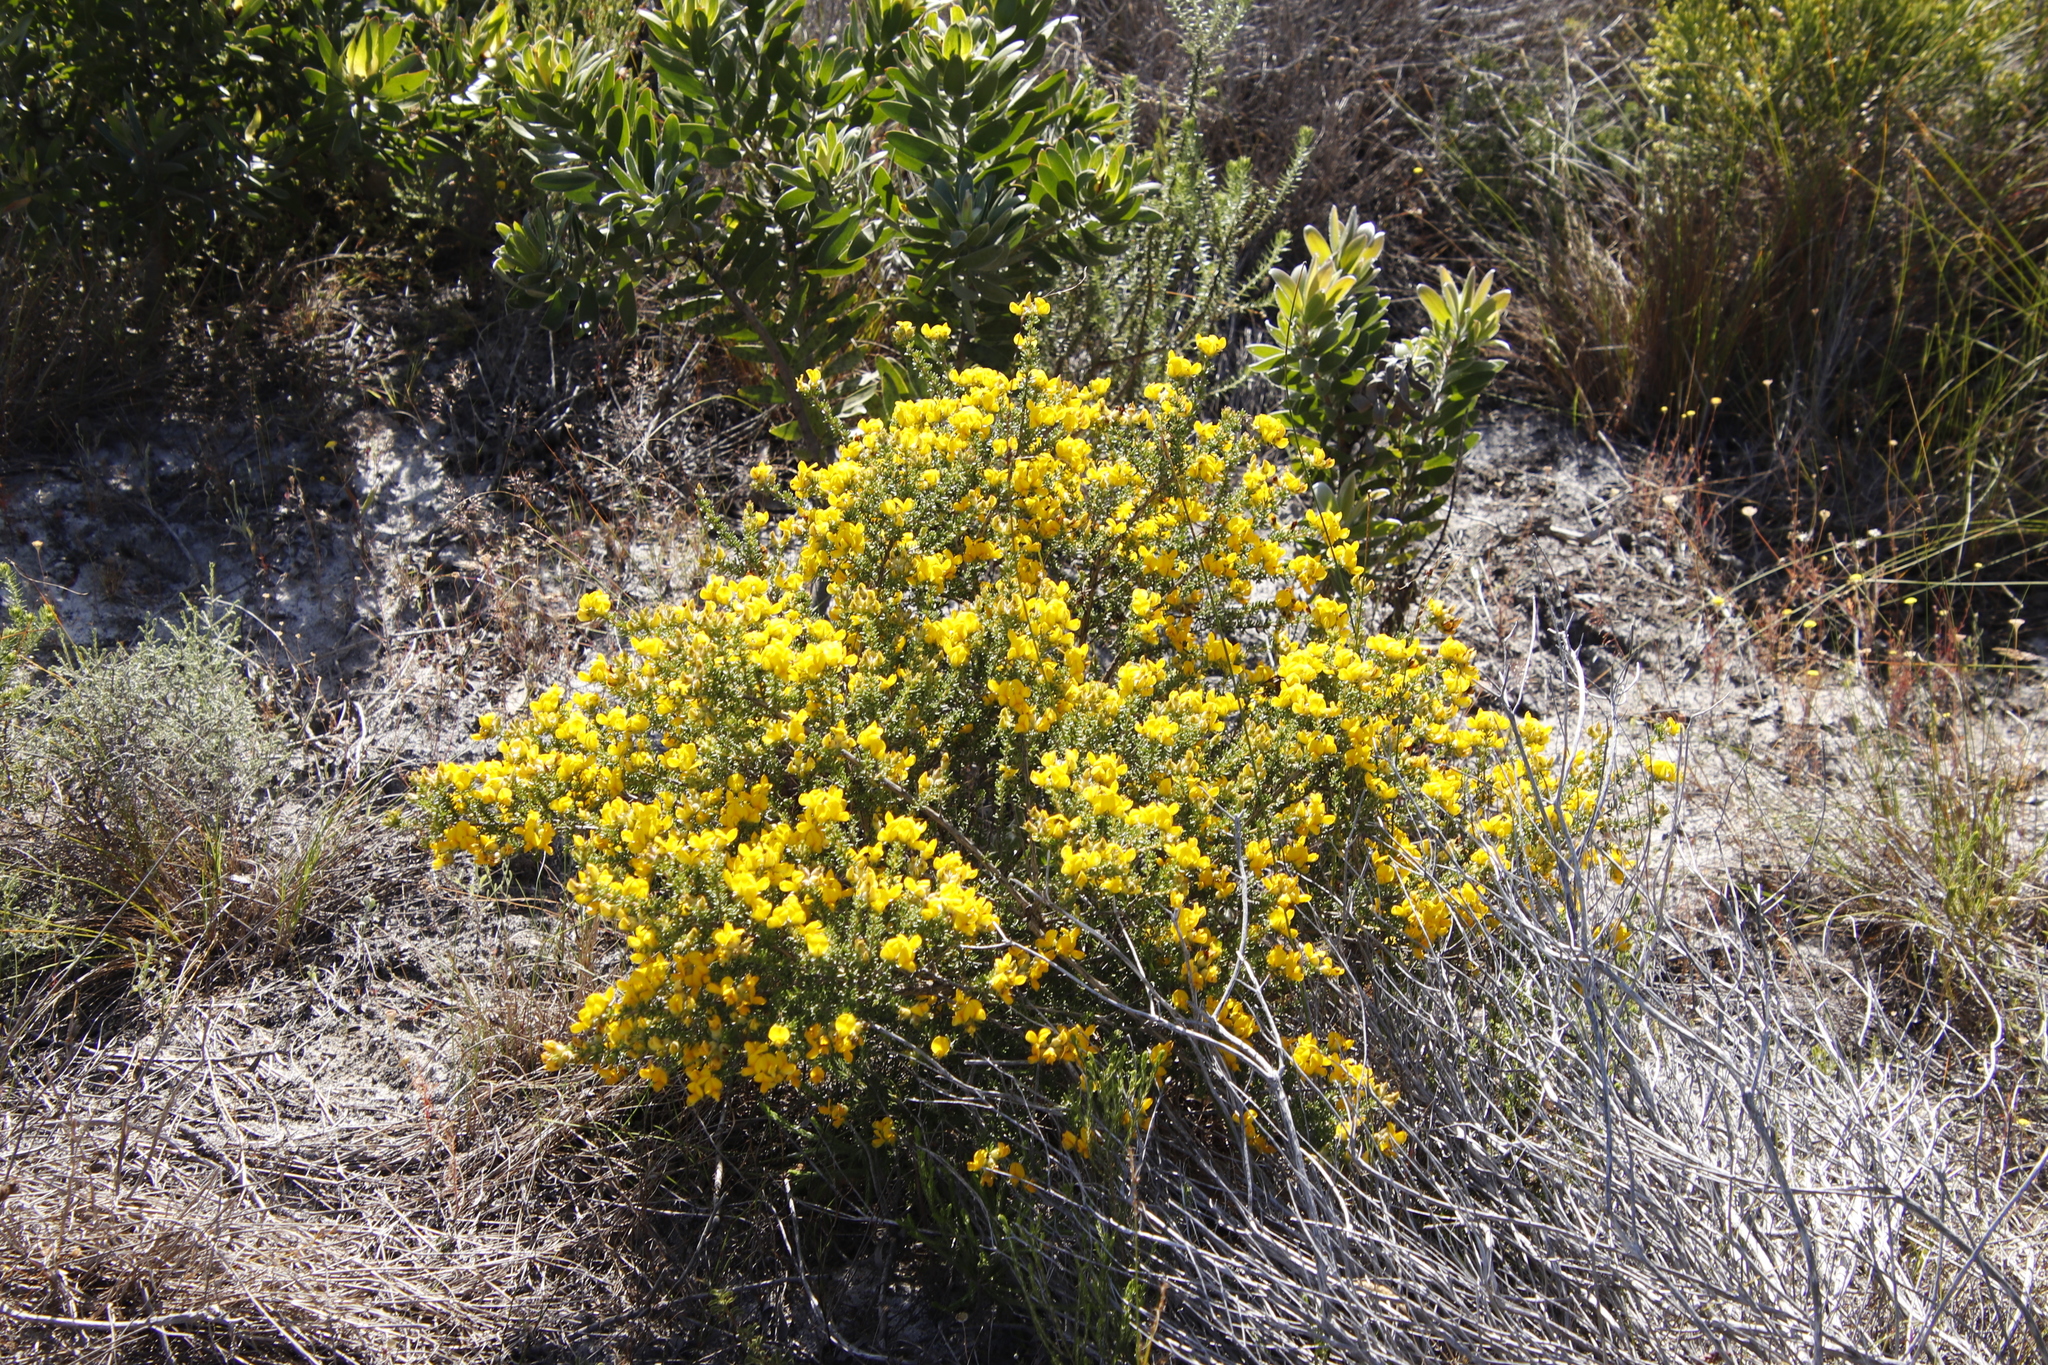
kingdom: Plantae
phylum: Tracheophyta
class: Magnoliopsida
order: Fabales
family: Fabaceae
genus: Aspalathus
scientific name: Aspalathus carnosa
